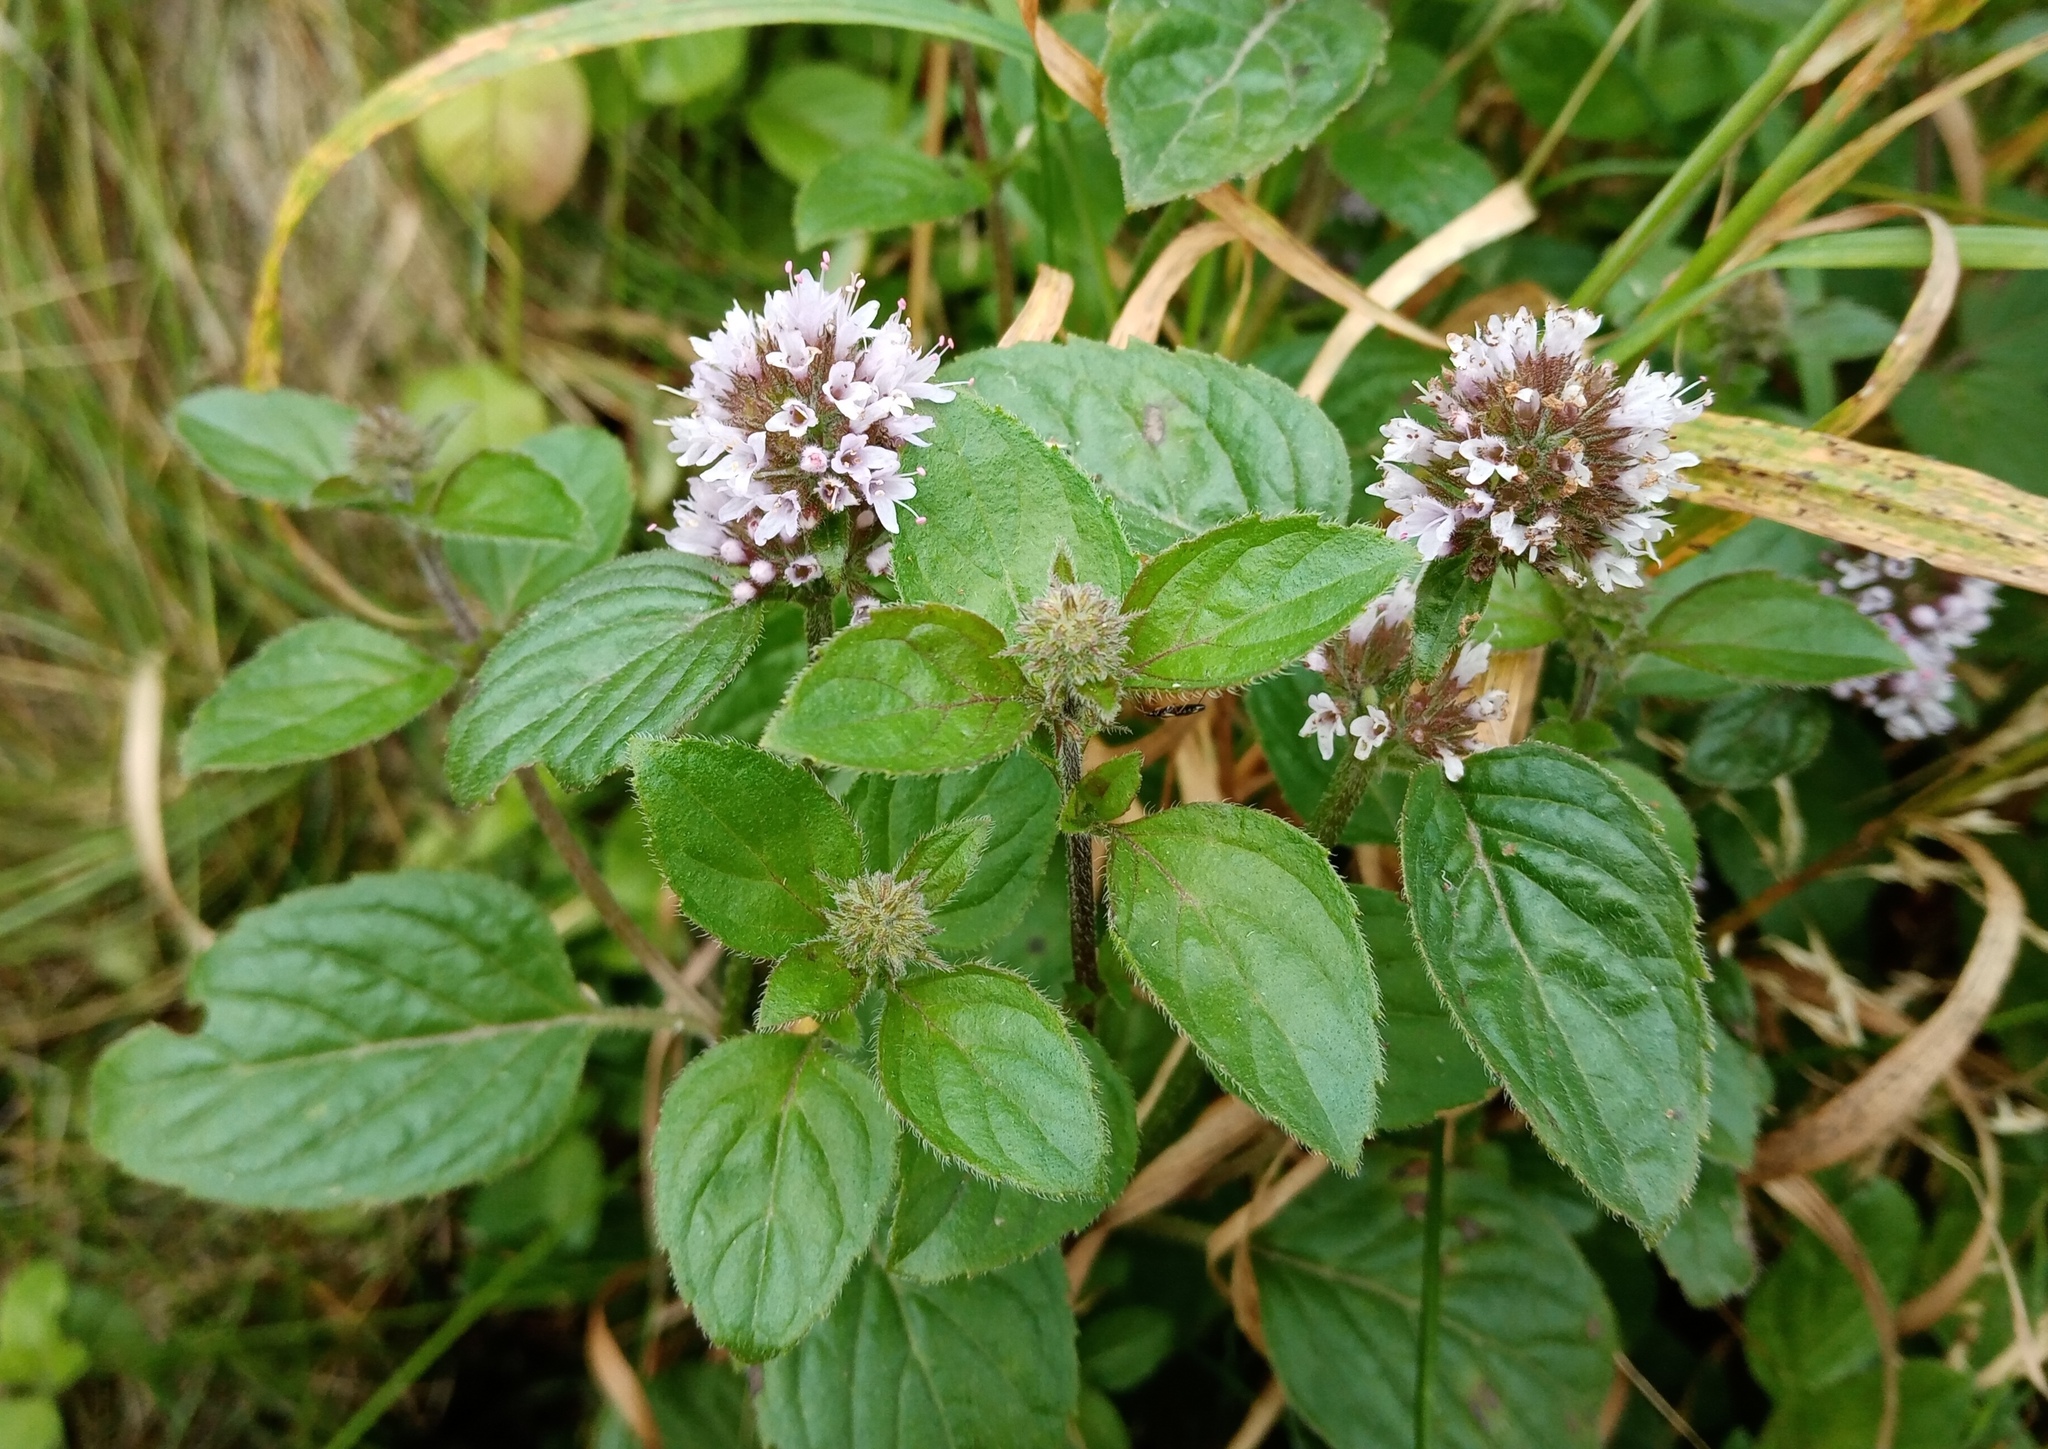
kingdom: Plantae
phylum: Tracheophyta
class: Magnoliopsida
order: Lamiales
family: Lamiaceae
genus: Mentha
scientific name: Mentha aquatica
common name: Water mint
